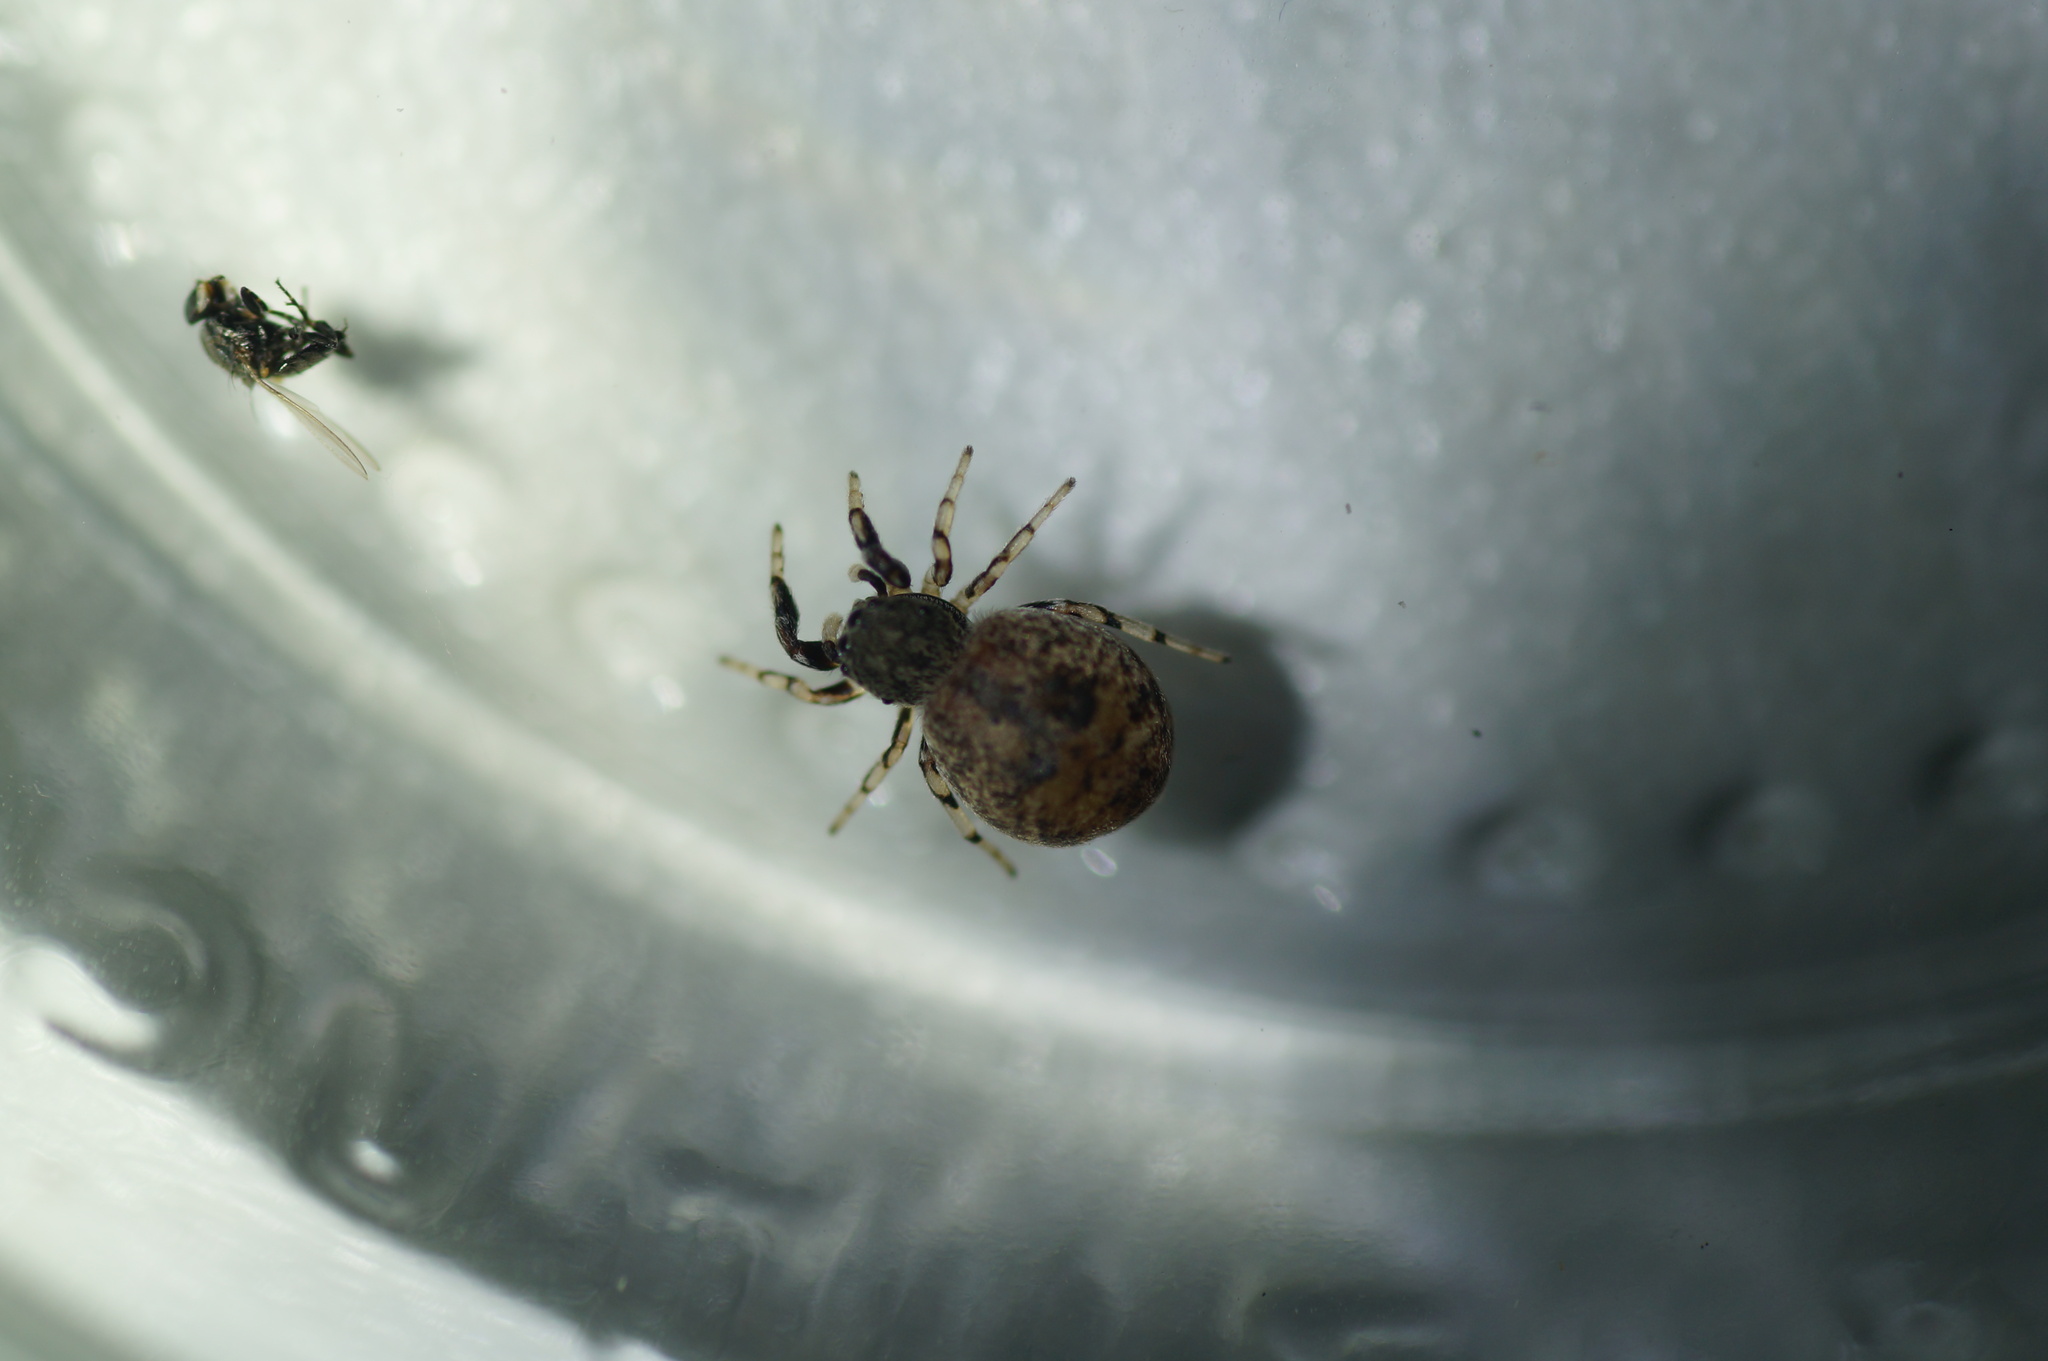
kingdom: Animalia
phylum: Arthropoda
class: Arachnida
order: Araneae
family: Salticidae
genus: Ballus
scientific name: Ballus chalybeius
